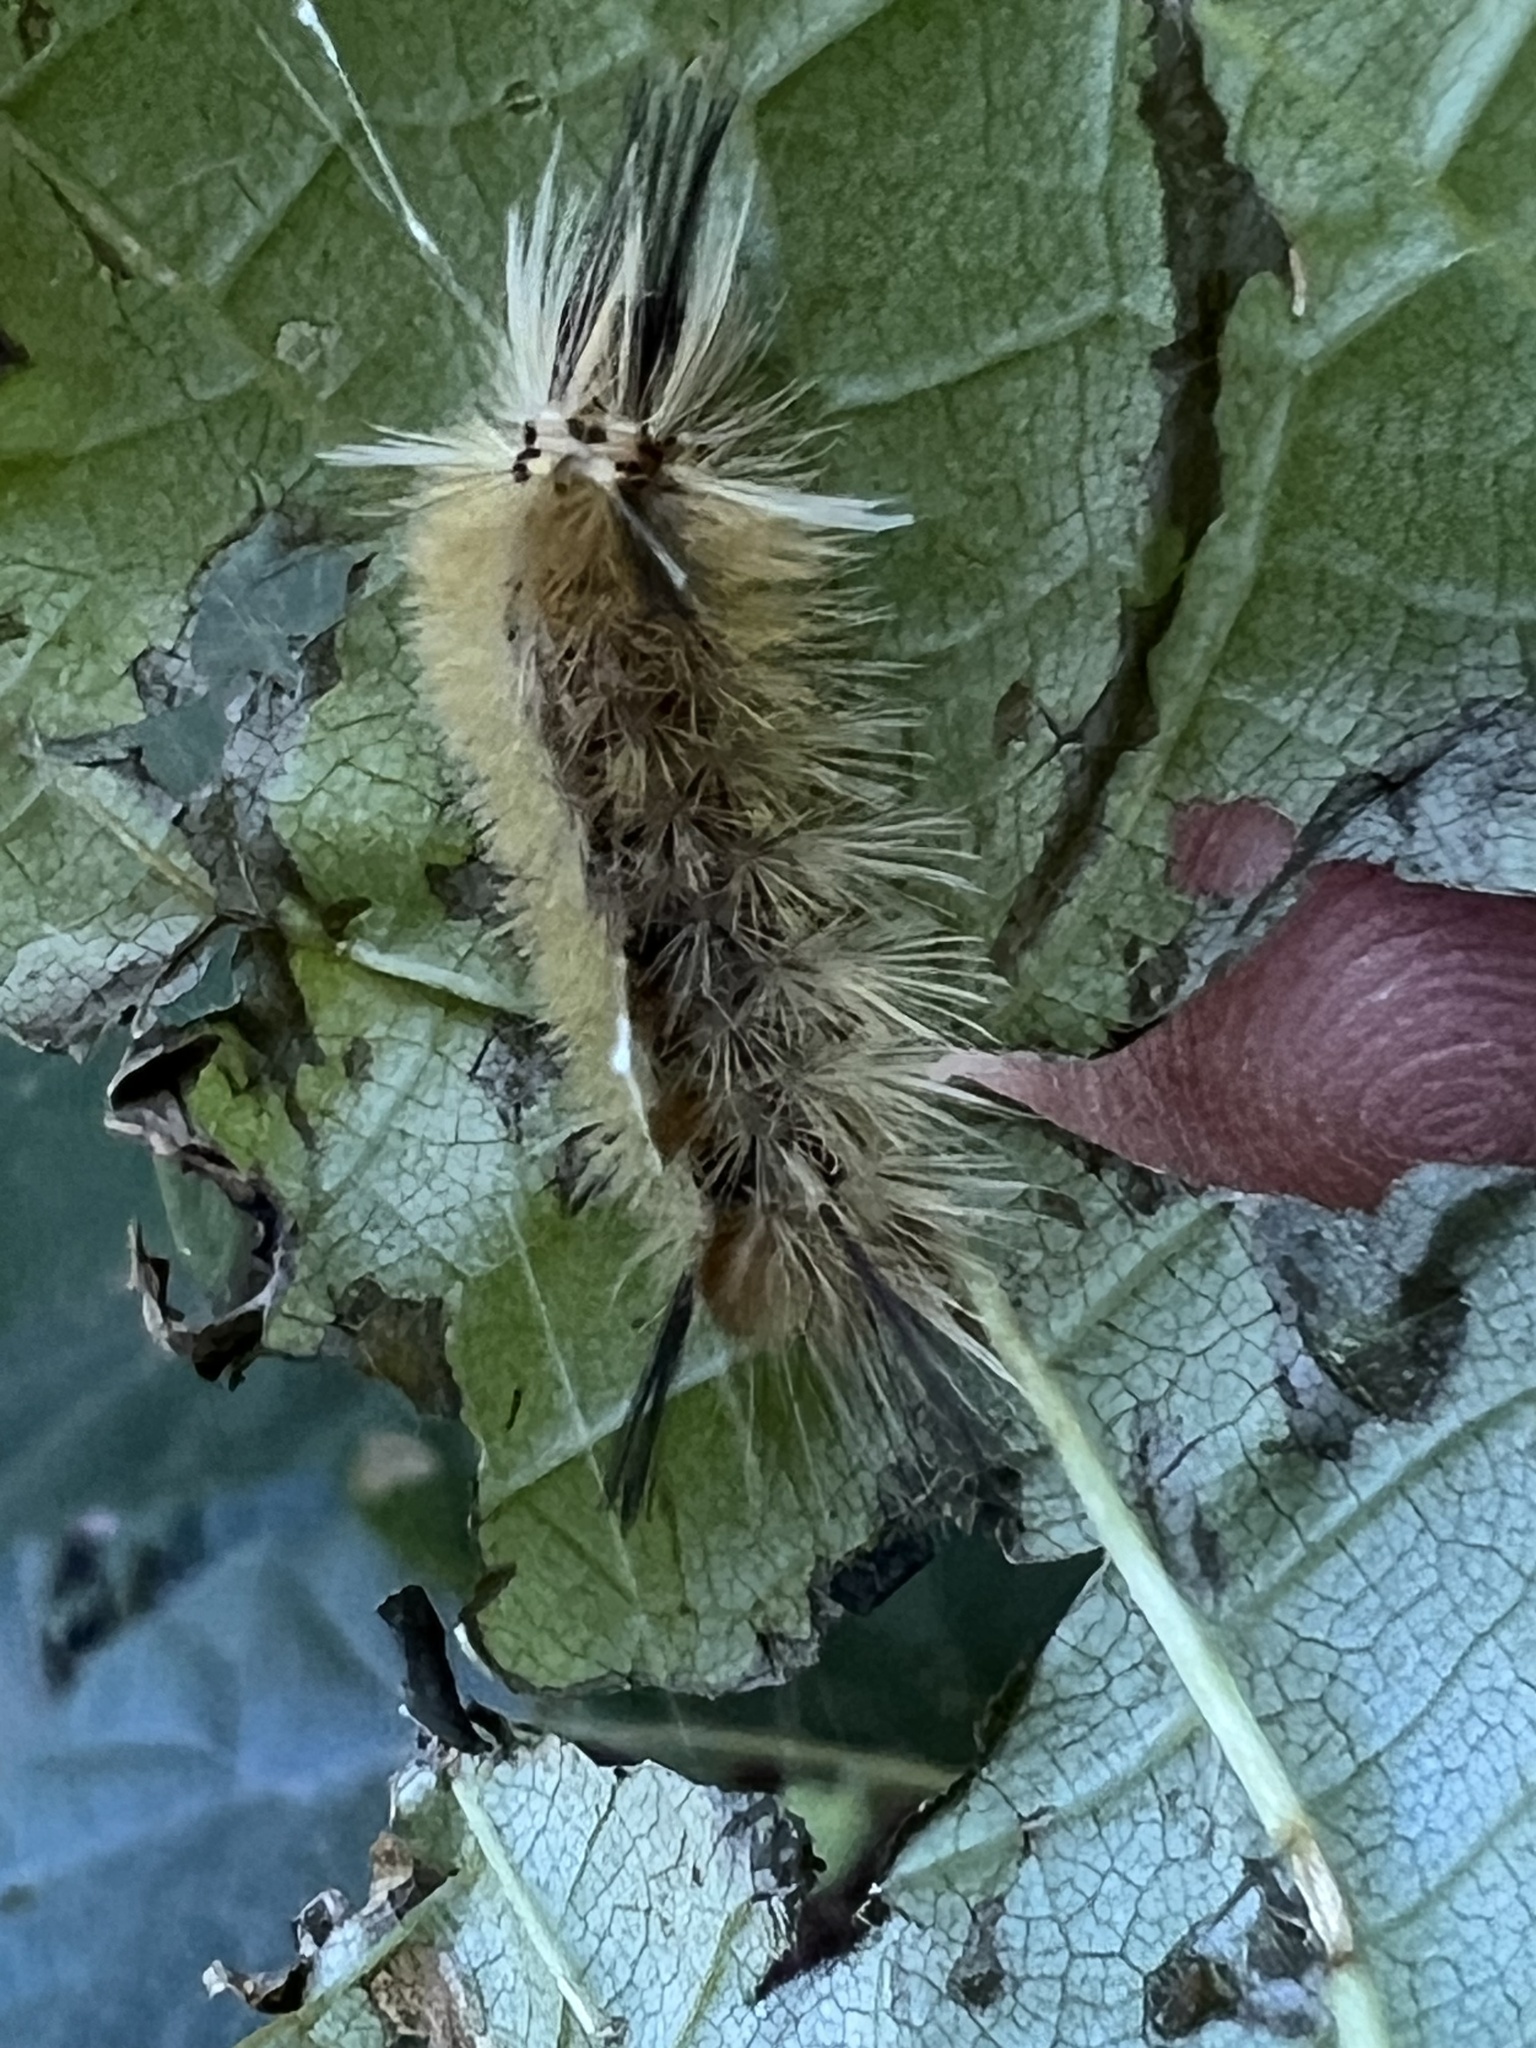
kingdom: Animalia
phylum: Arthropoda
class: Insecta
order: Lepidoptera
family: Erebidae
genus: Halysidota
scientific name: Halysidota tessellaris
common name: Banded tussock moth
